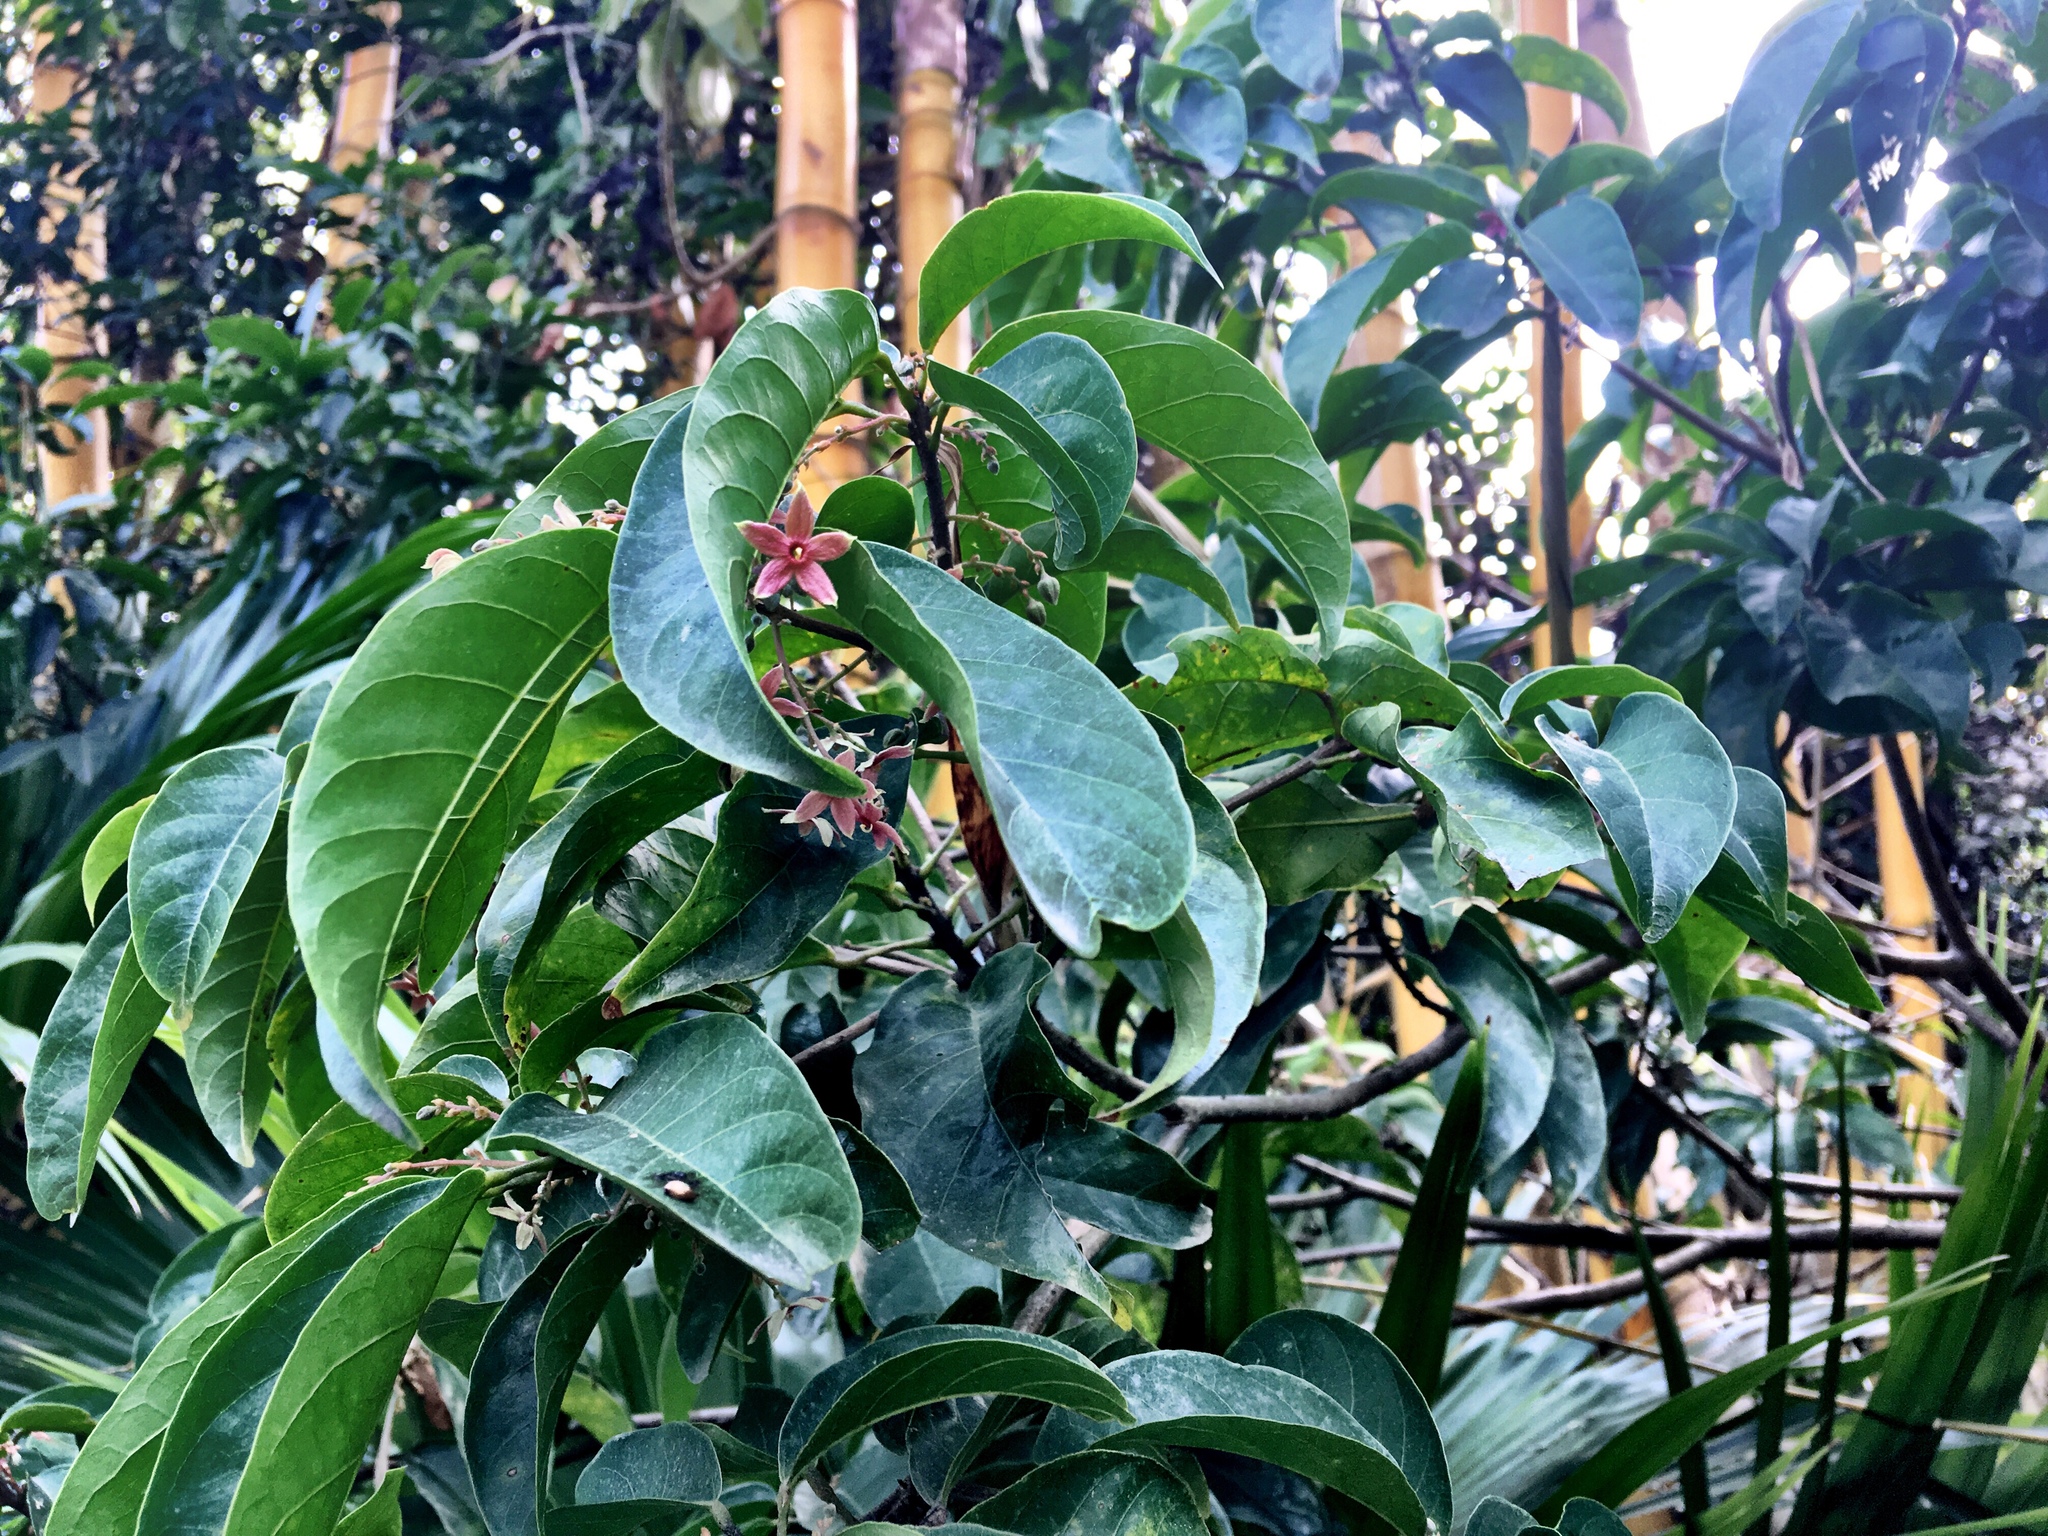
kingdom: Plantae
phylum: Tracheophyta
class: Magnoliopsida
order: Malvales
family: Malvaceae
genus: Sterculia
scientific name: Sterculia lanceolata
